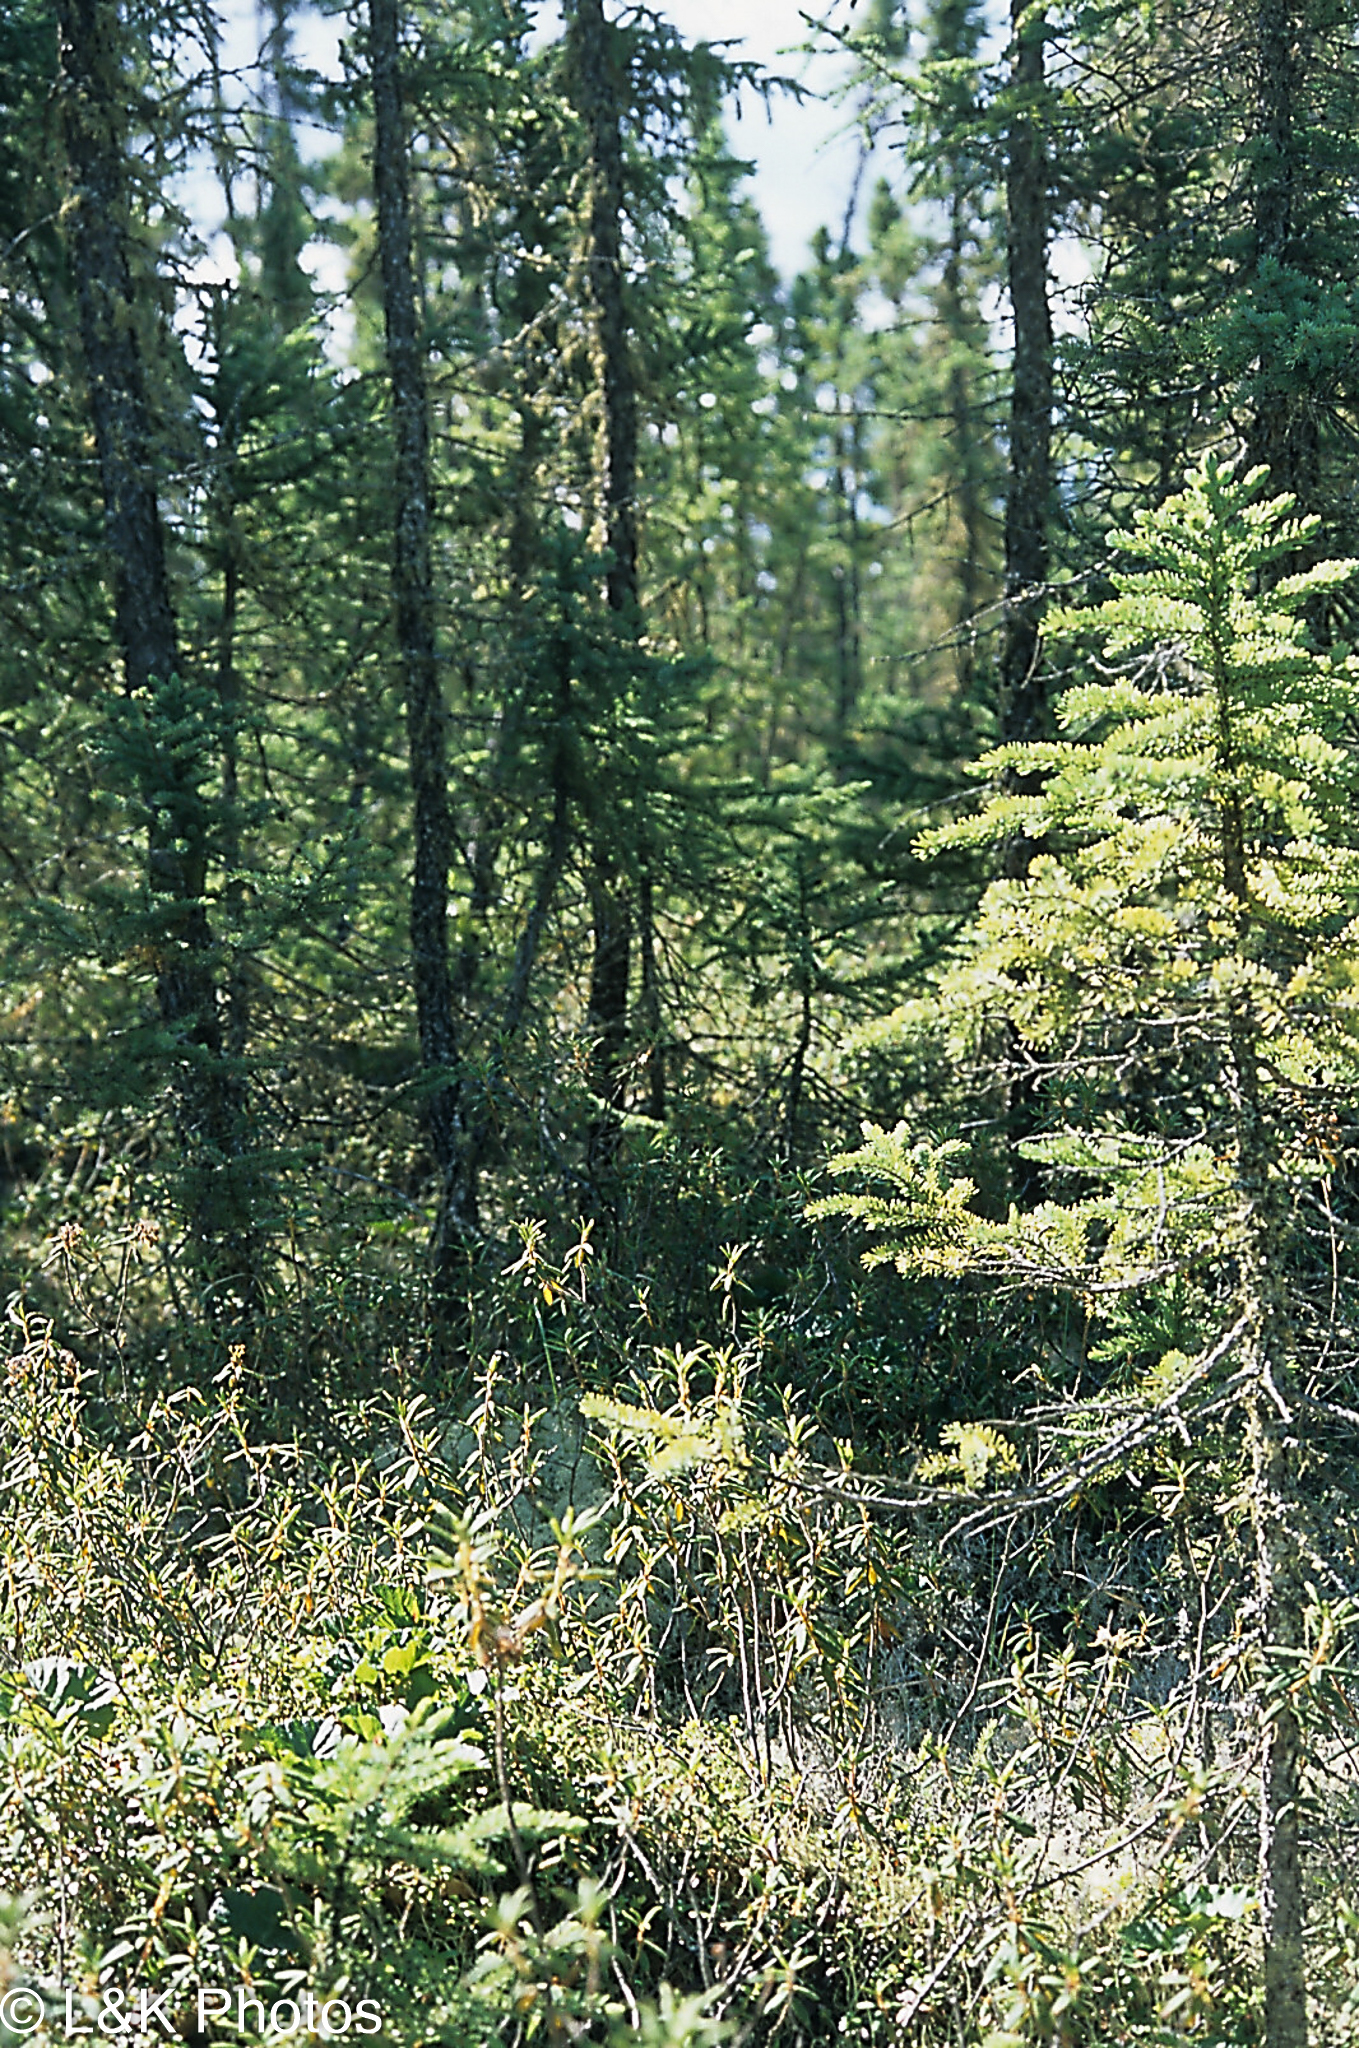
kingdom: Plantae
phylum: Tracheophyta
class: Pinopsida
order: Pinales
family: Pinaceae
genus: Picea
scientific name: Picea mariana
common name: Black spruce
